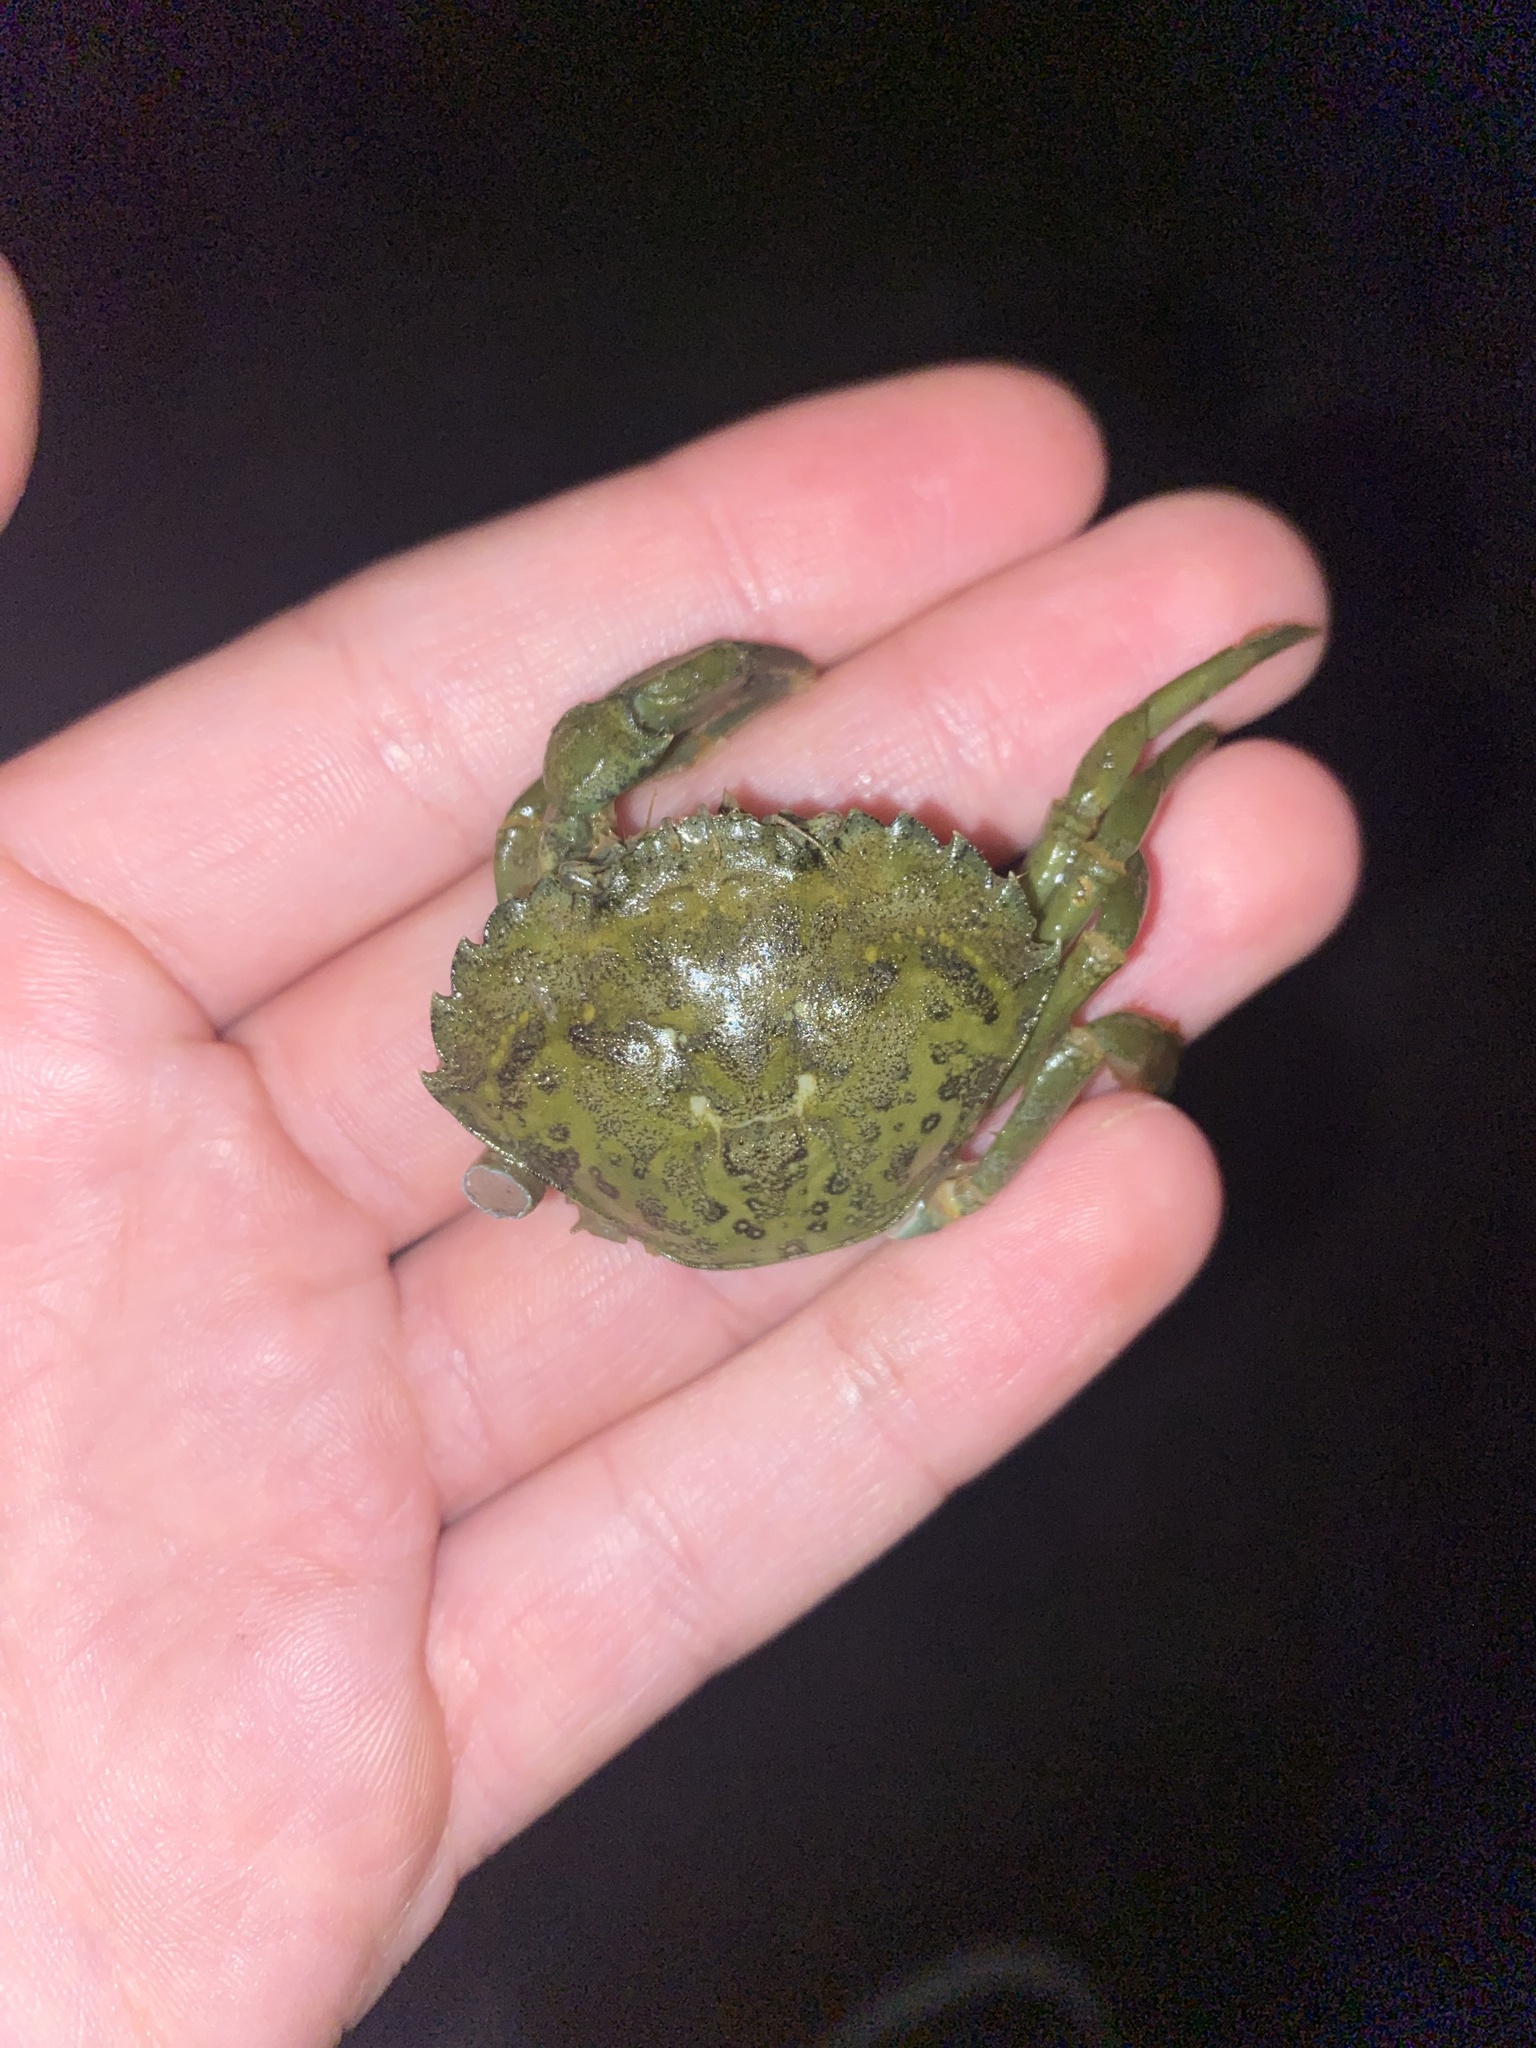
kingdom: Animalia
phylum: Arthropoda
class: Malacostraca
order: Decapoda
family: Carcinidae
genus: Carcinus
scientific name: Carcinus maenas
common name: European green crab
